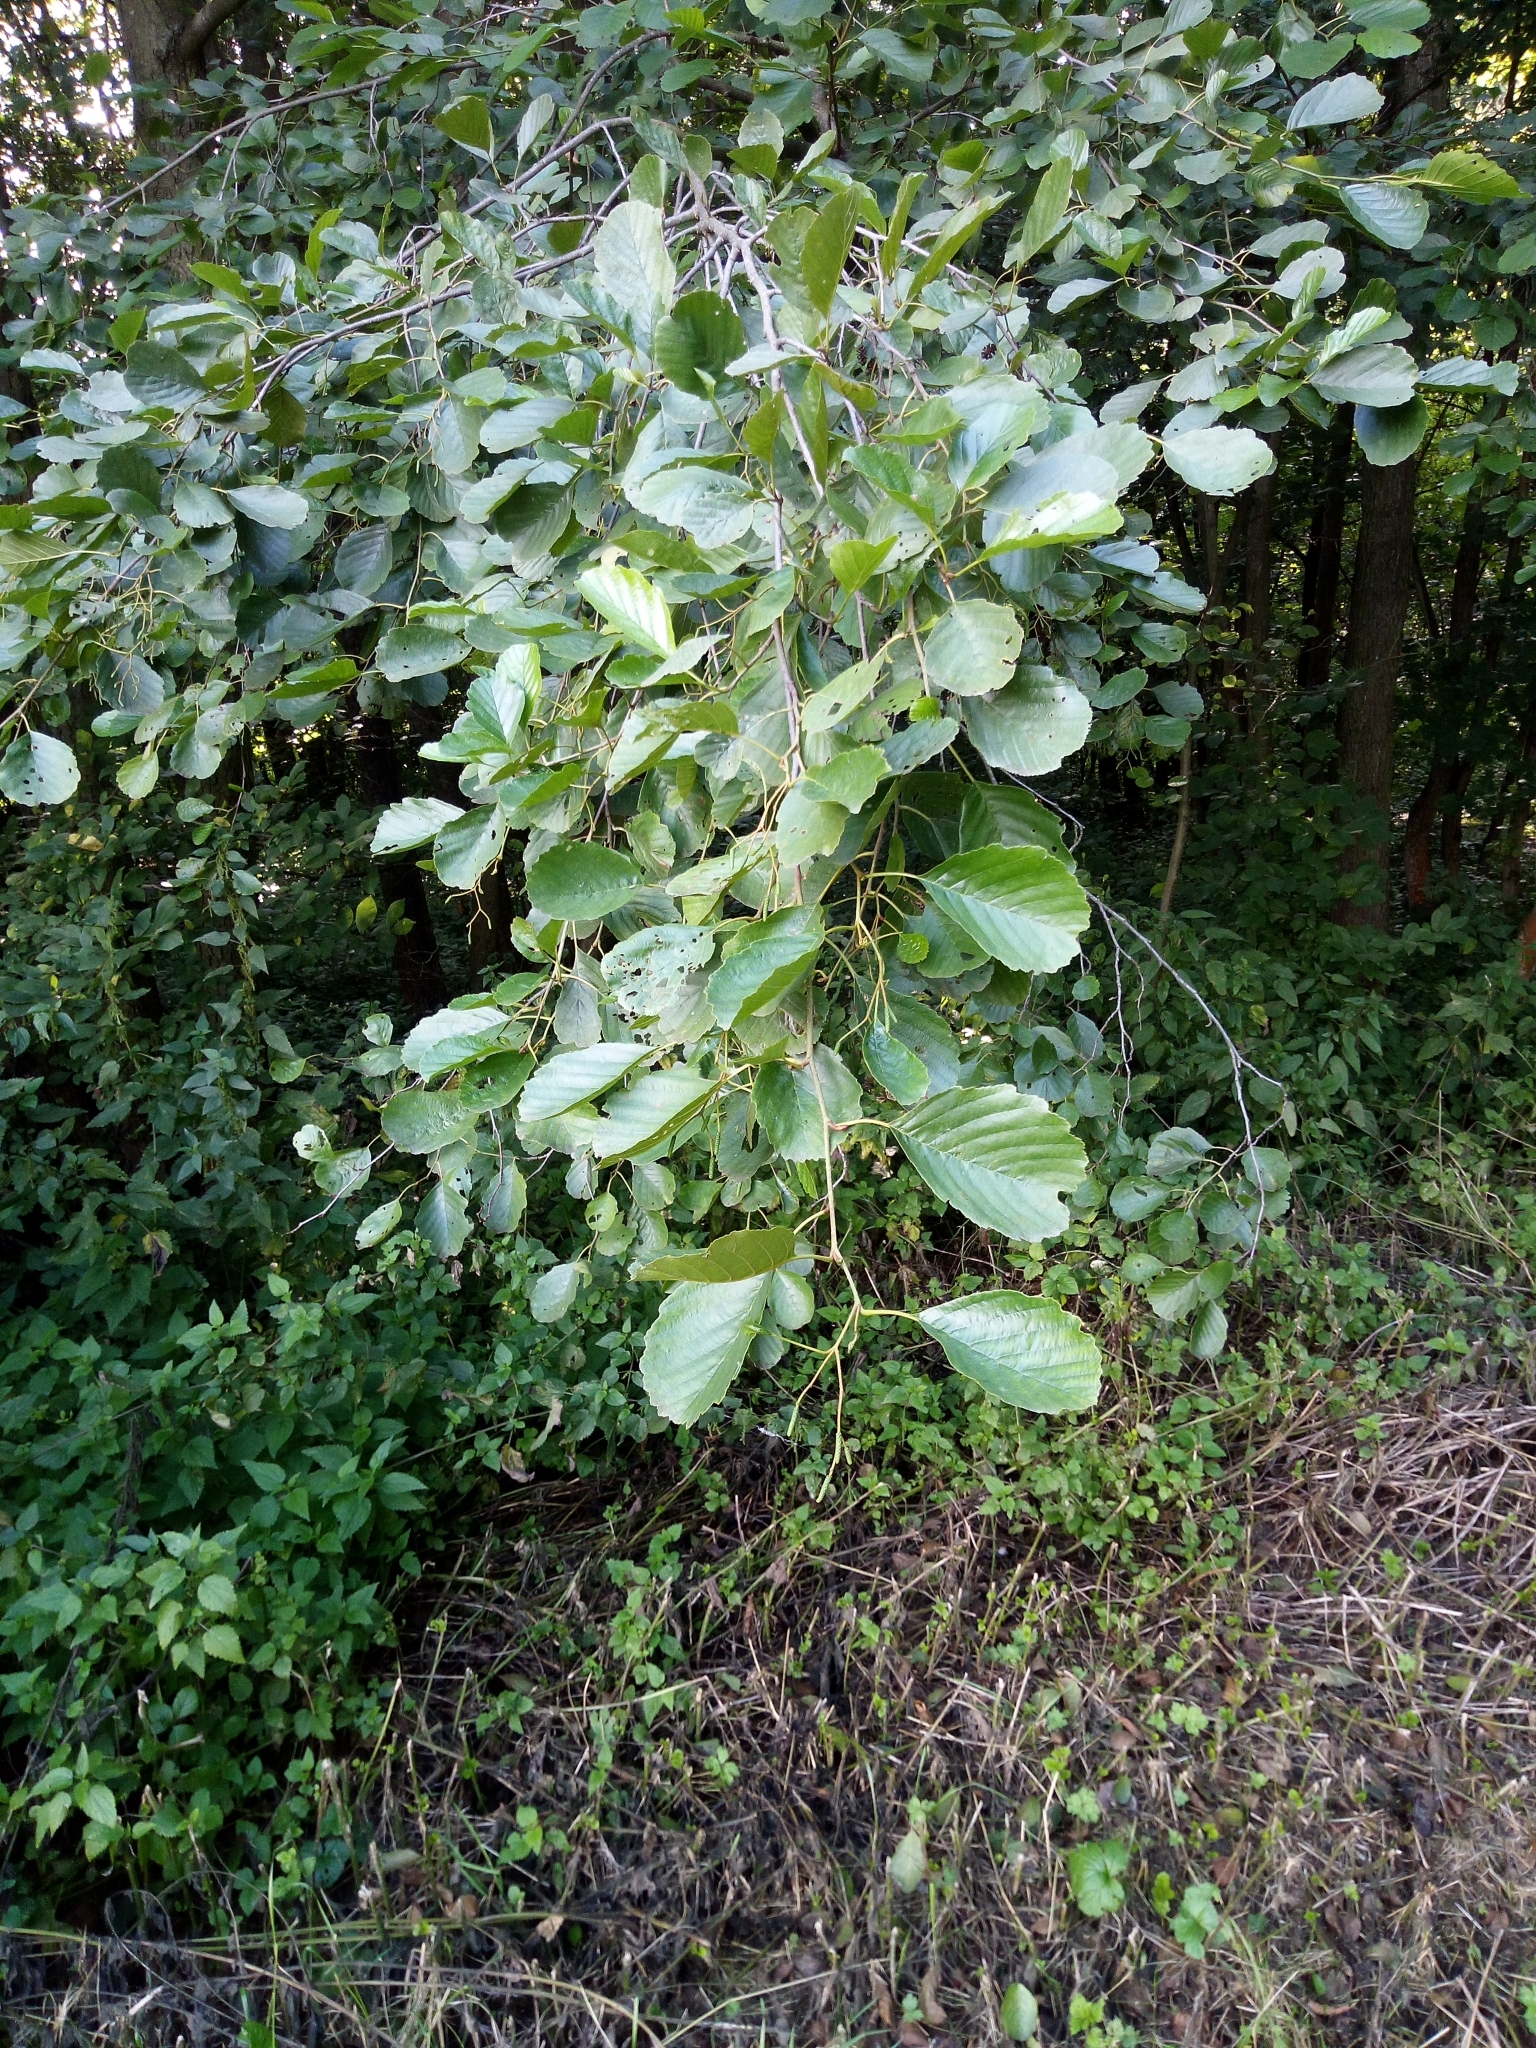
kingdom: Plantae
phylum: Tracheophyta
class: Magnoliopsida
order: Fagales
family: Betulaceae
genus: Alnus
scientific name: Alnus glutinosa
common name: Black alder
